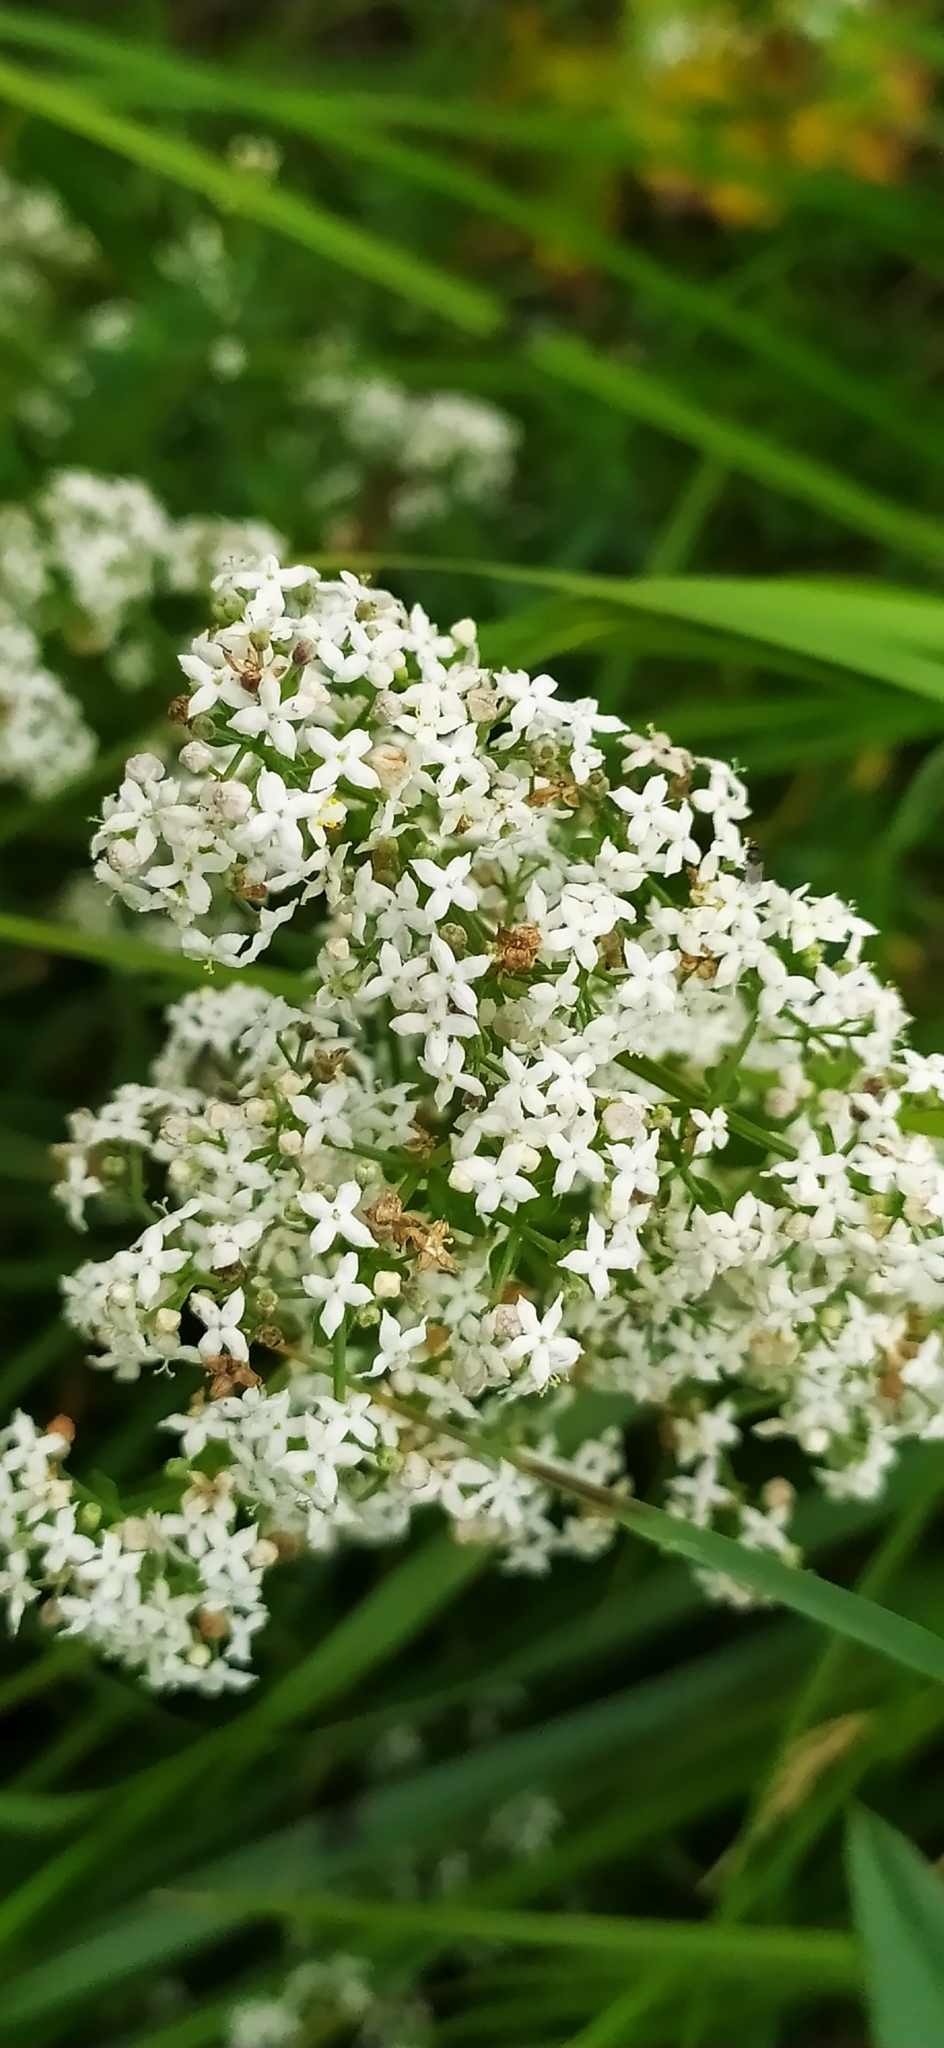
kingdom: Plantae
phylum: Tracheophyta
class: Magnoliopsida
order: Gentianales
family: Rubiaceae
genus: Galium
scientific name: Galium boreale
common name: Northern bedstraw
